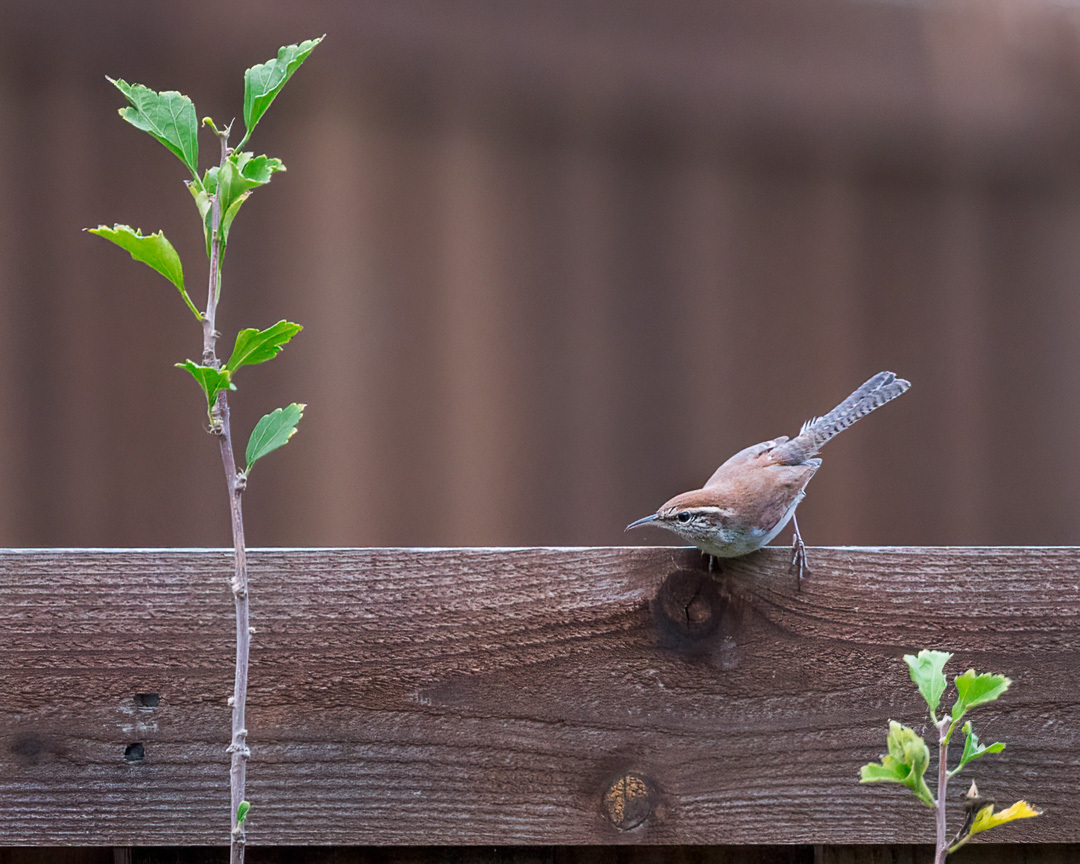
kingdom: Animalia
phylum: Chordata
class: Aves
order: Passeriformes
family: Troglodytidae
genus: Thryothorus
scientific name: Thryothorus ludovicianus
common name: Carolina wren
